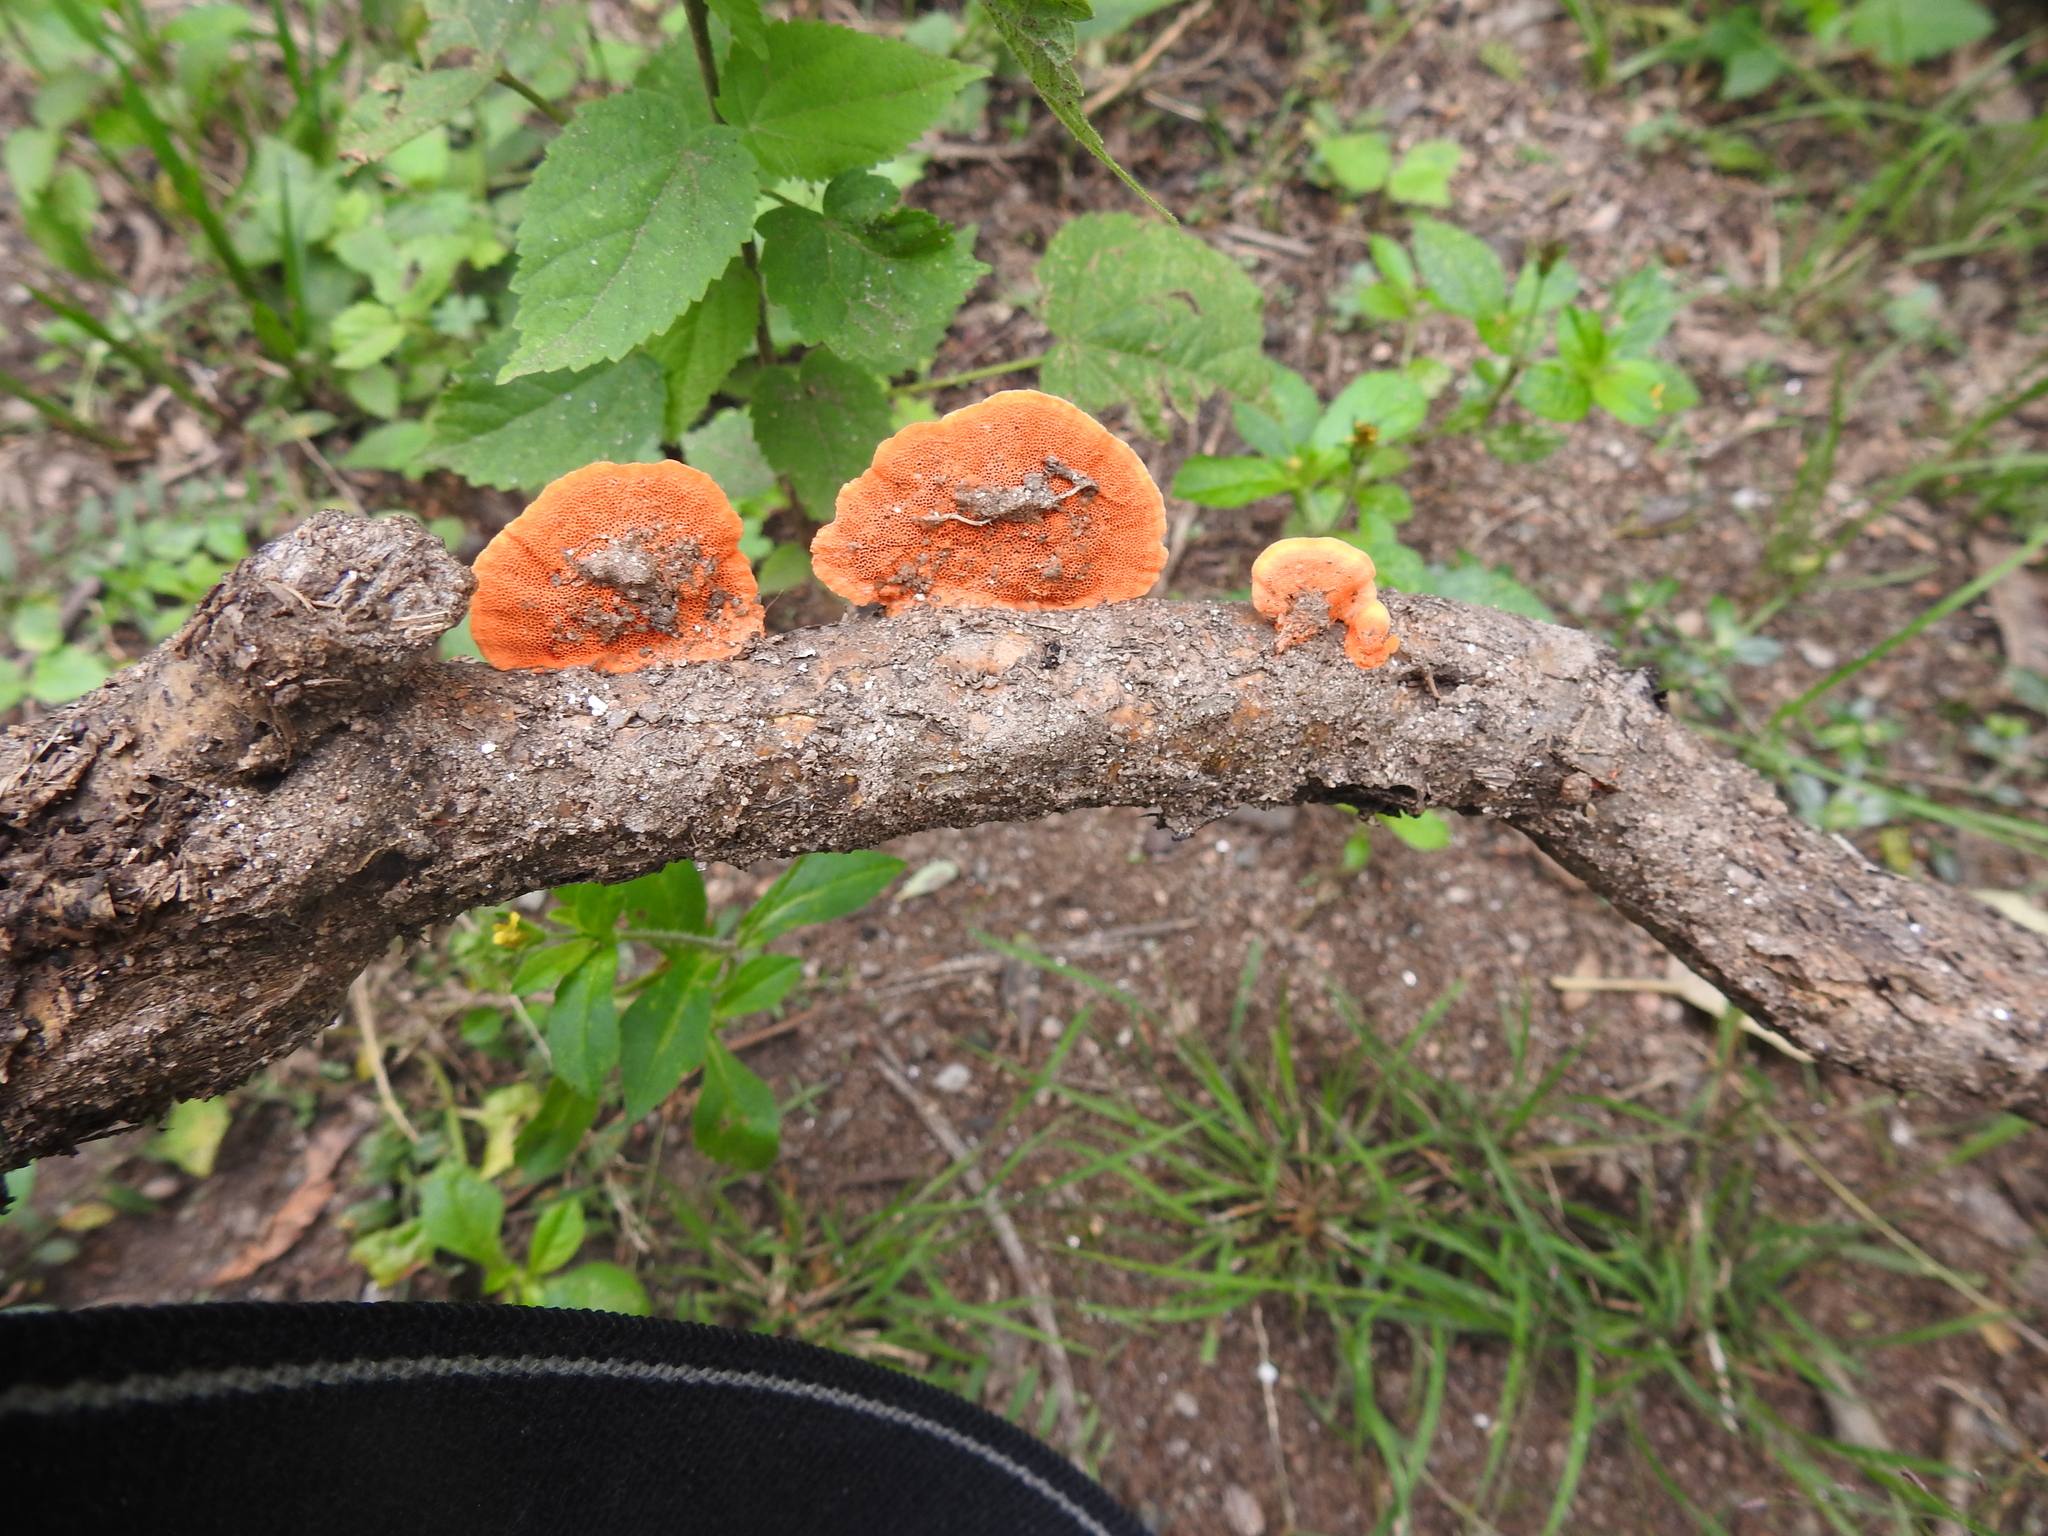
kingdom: Fungi
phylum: Basidiomycota
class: Agaricomycetes
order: Polyporales
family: Polyporaceae
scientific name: Polyporaceae
